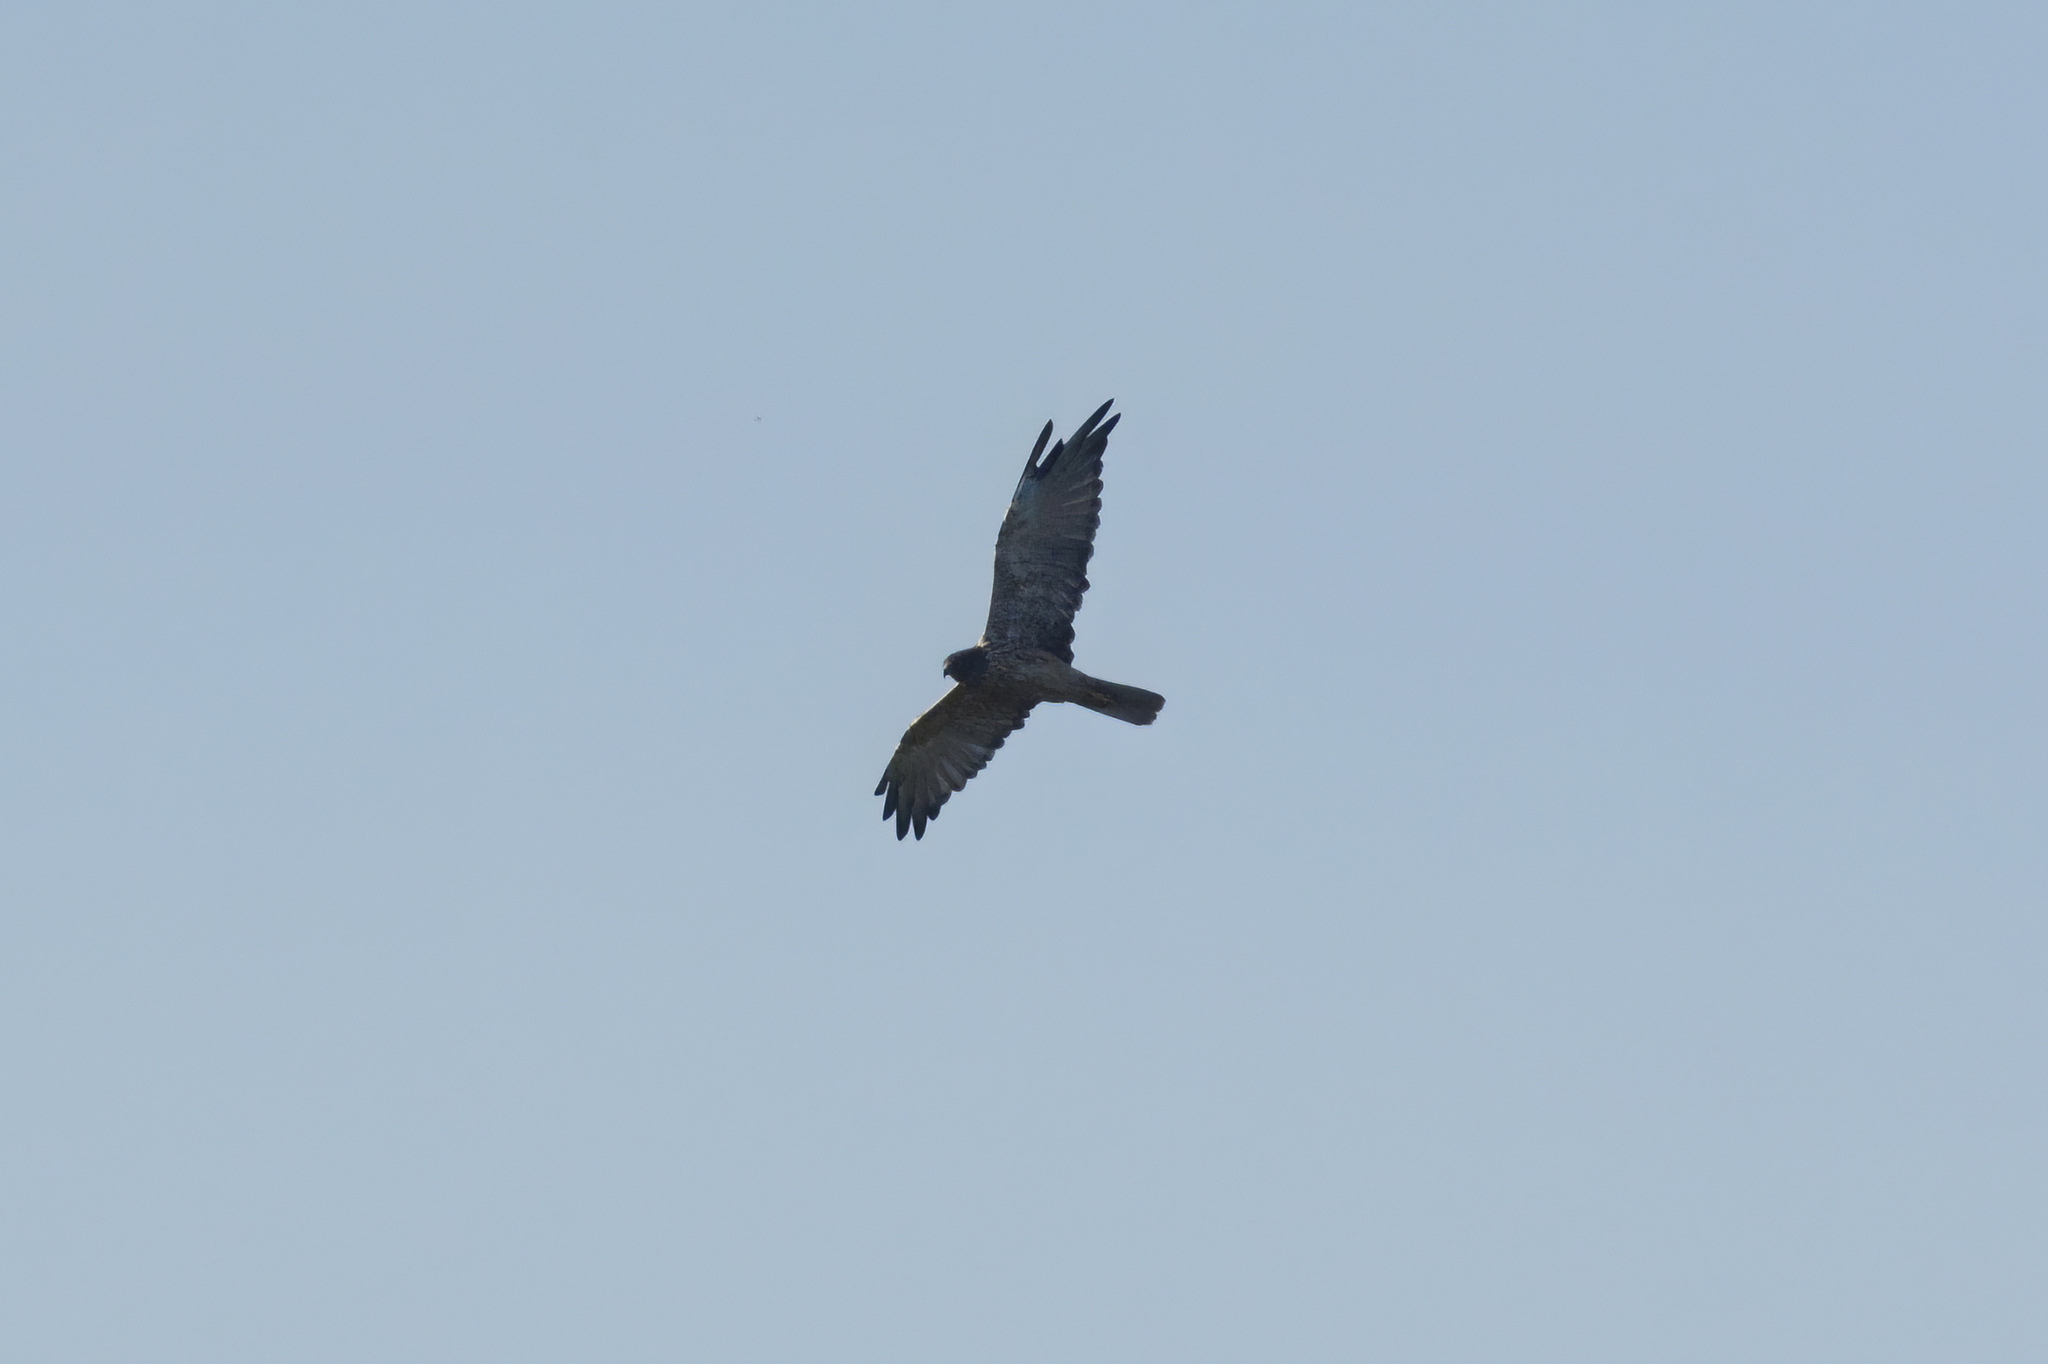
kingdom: Animalia
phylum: Chordata
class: Aves
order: Accipitriformes
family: Accipitridae
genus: Circus
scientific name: Circus approximans
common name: Swamp harrier
